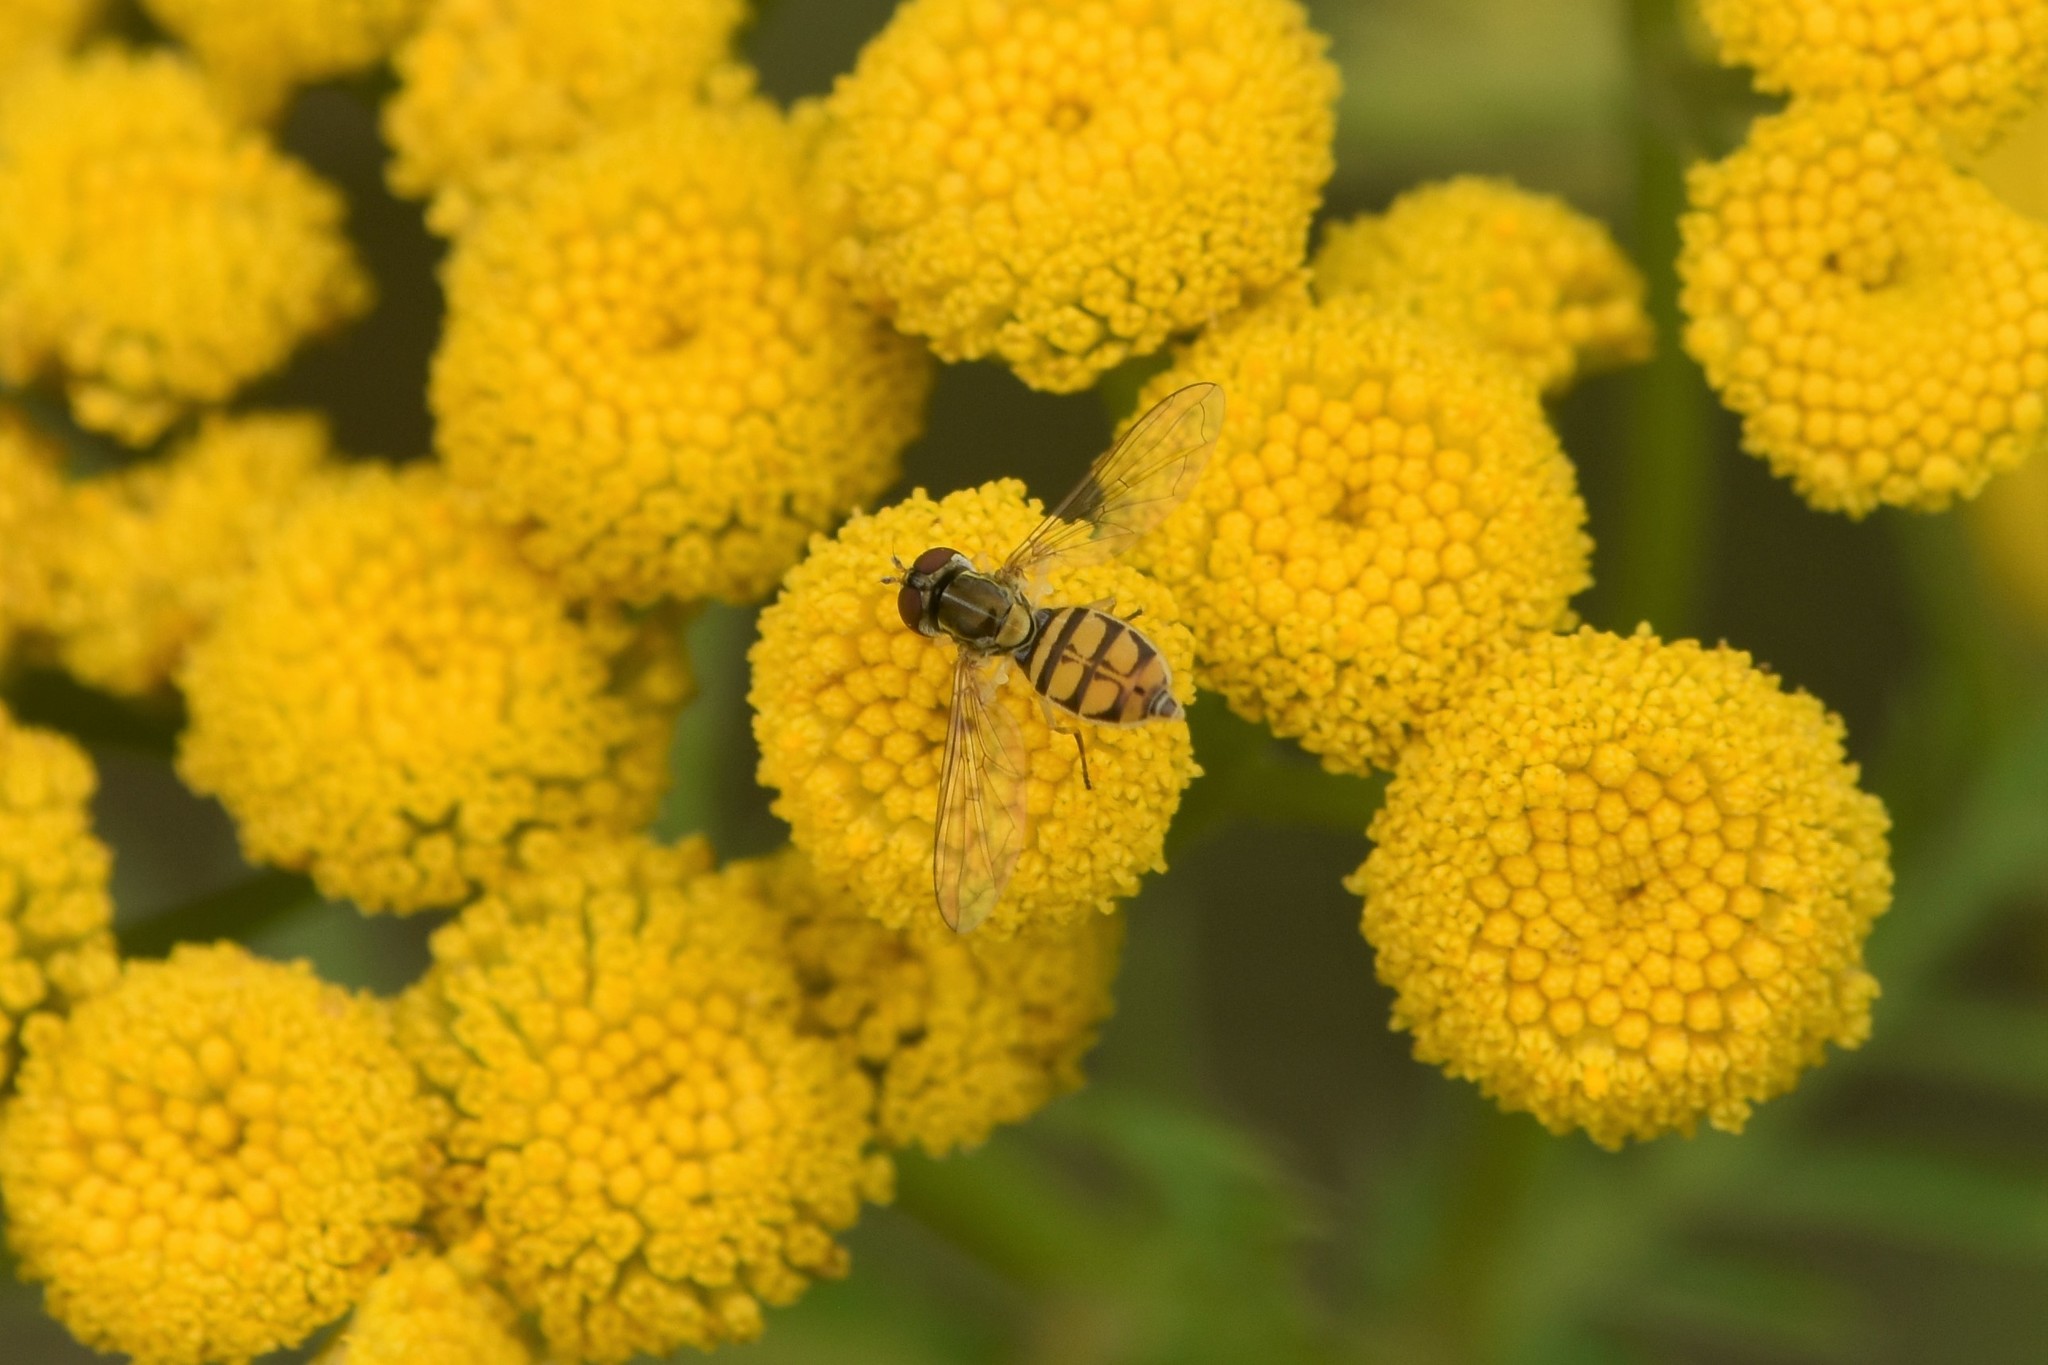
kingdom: Animalia
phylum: Arthropoda
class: Insecta
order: Diptera
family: Syrphidae
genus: Toxomerus
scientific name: Toxomerus marginatus
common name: Syrphid fly
